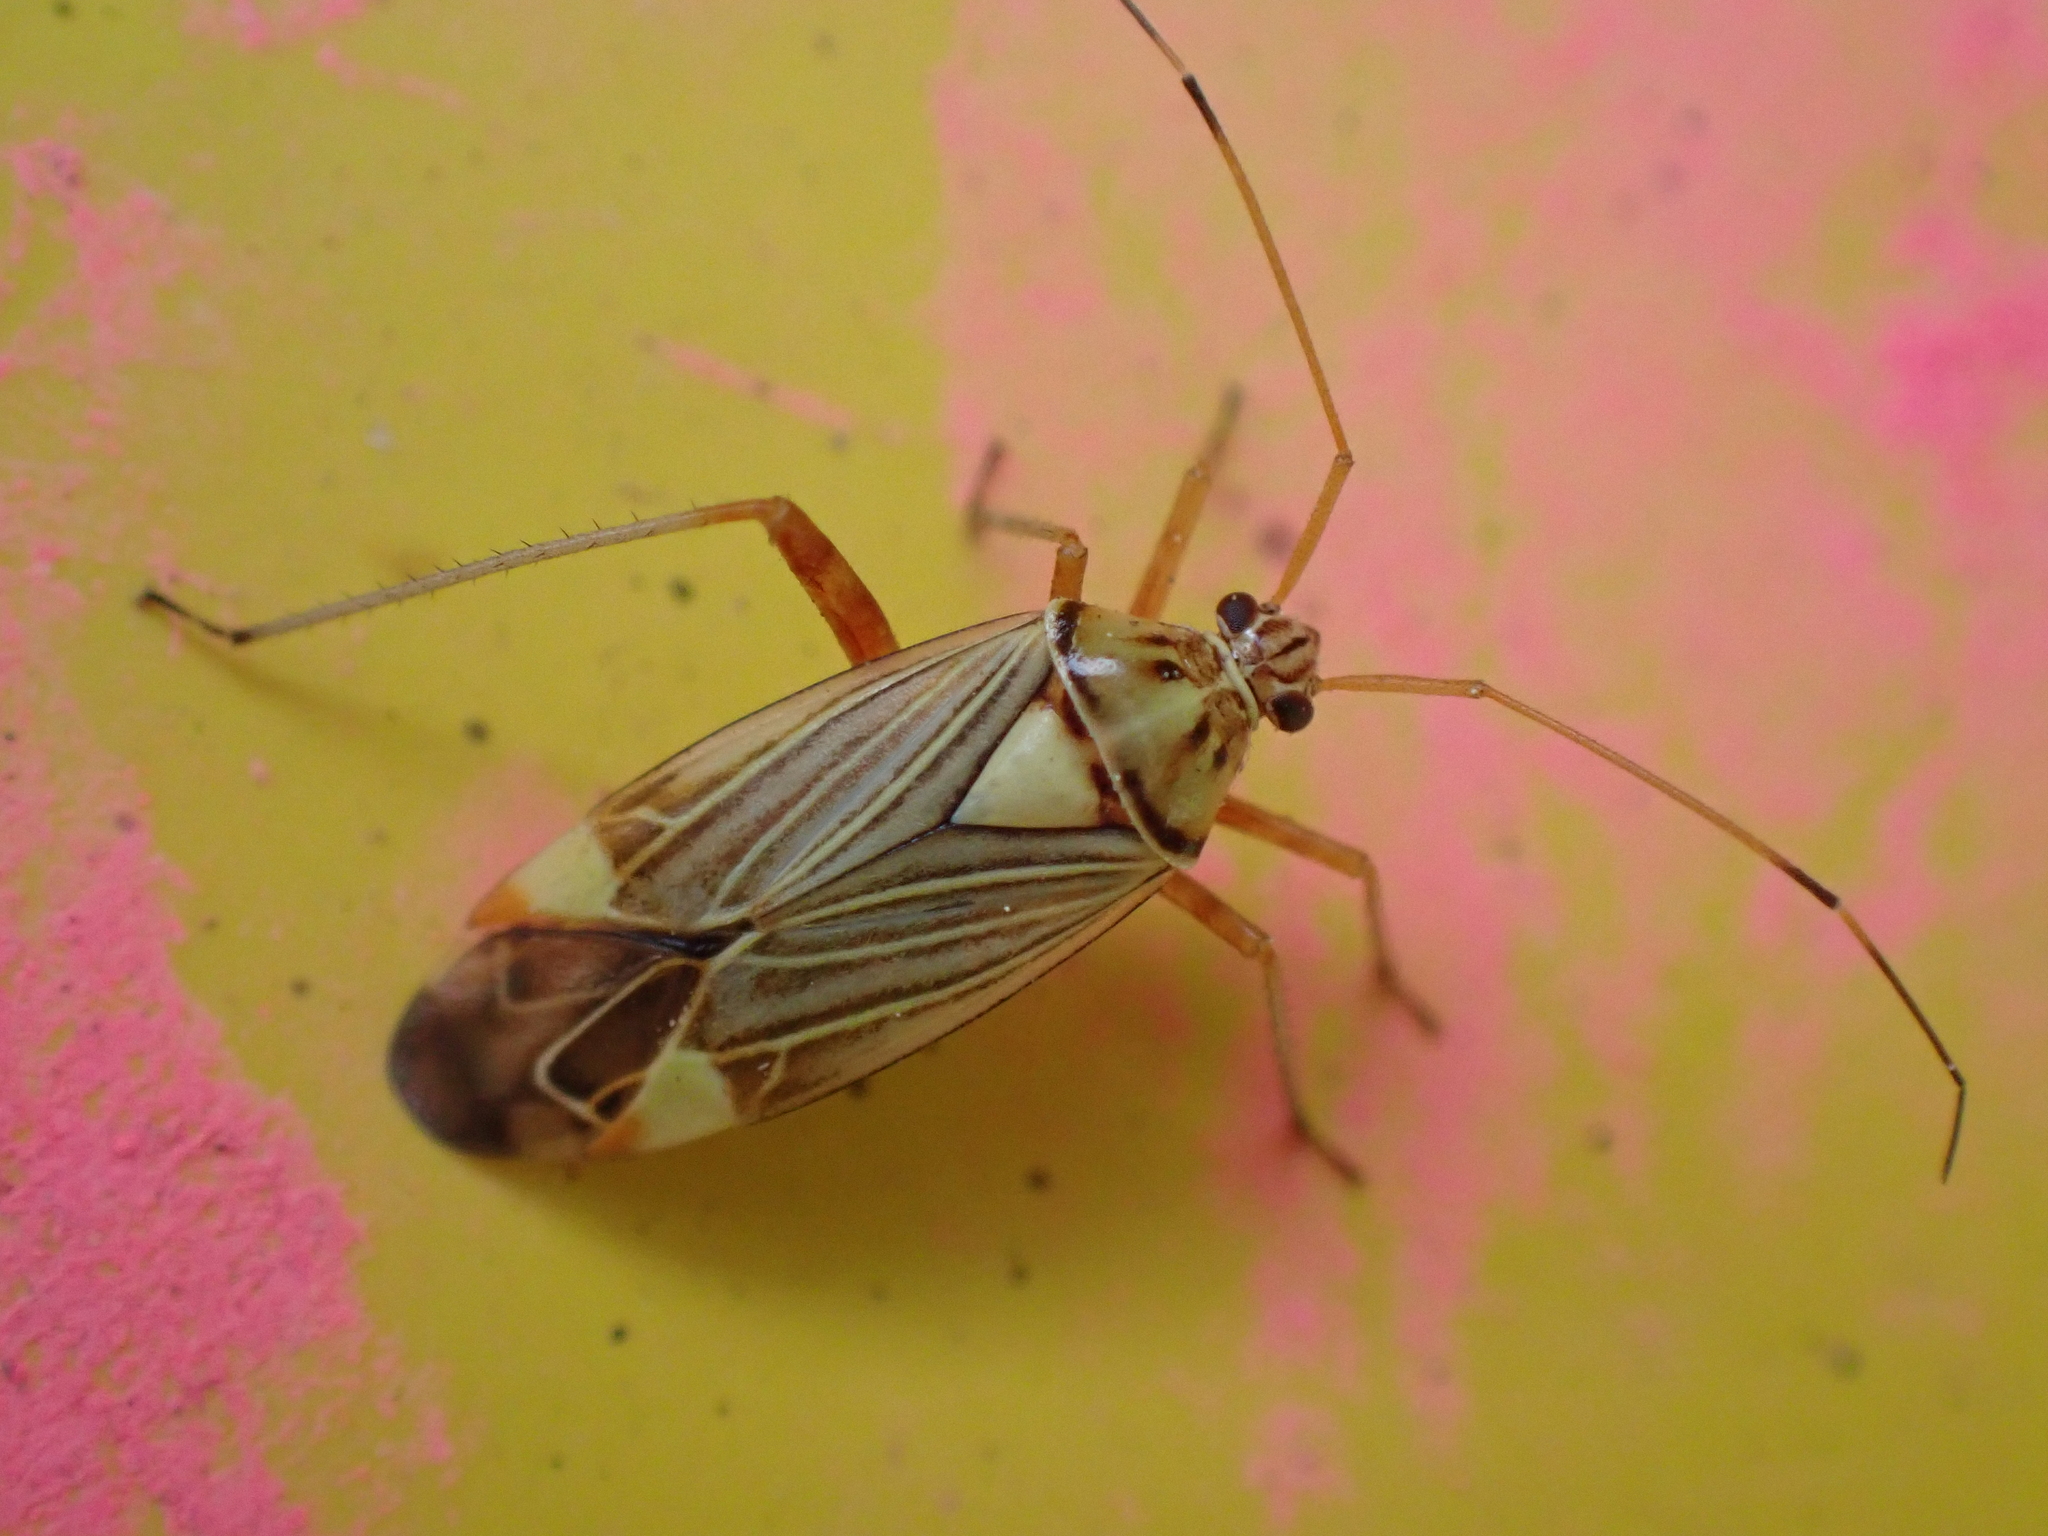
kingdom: Animalia
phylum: Arthropoda
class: Insecta
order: Hemiptera
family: Miridae
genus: Rhabdomiris
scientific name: Rhabdomiris striatellus
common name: Plant bug
